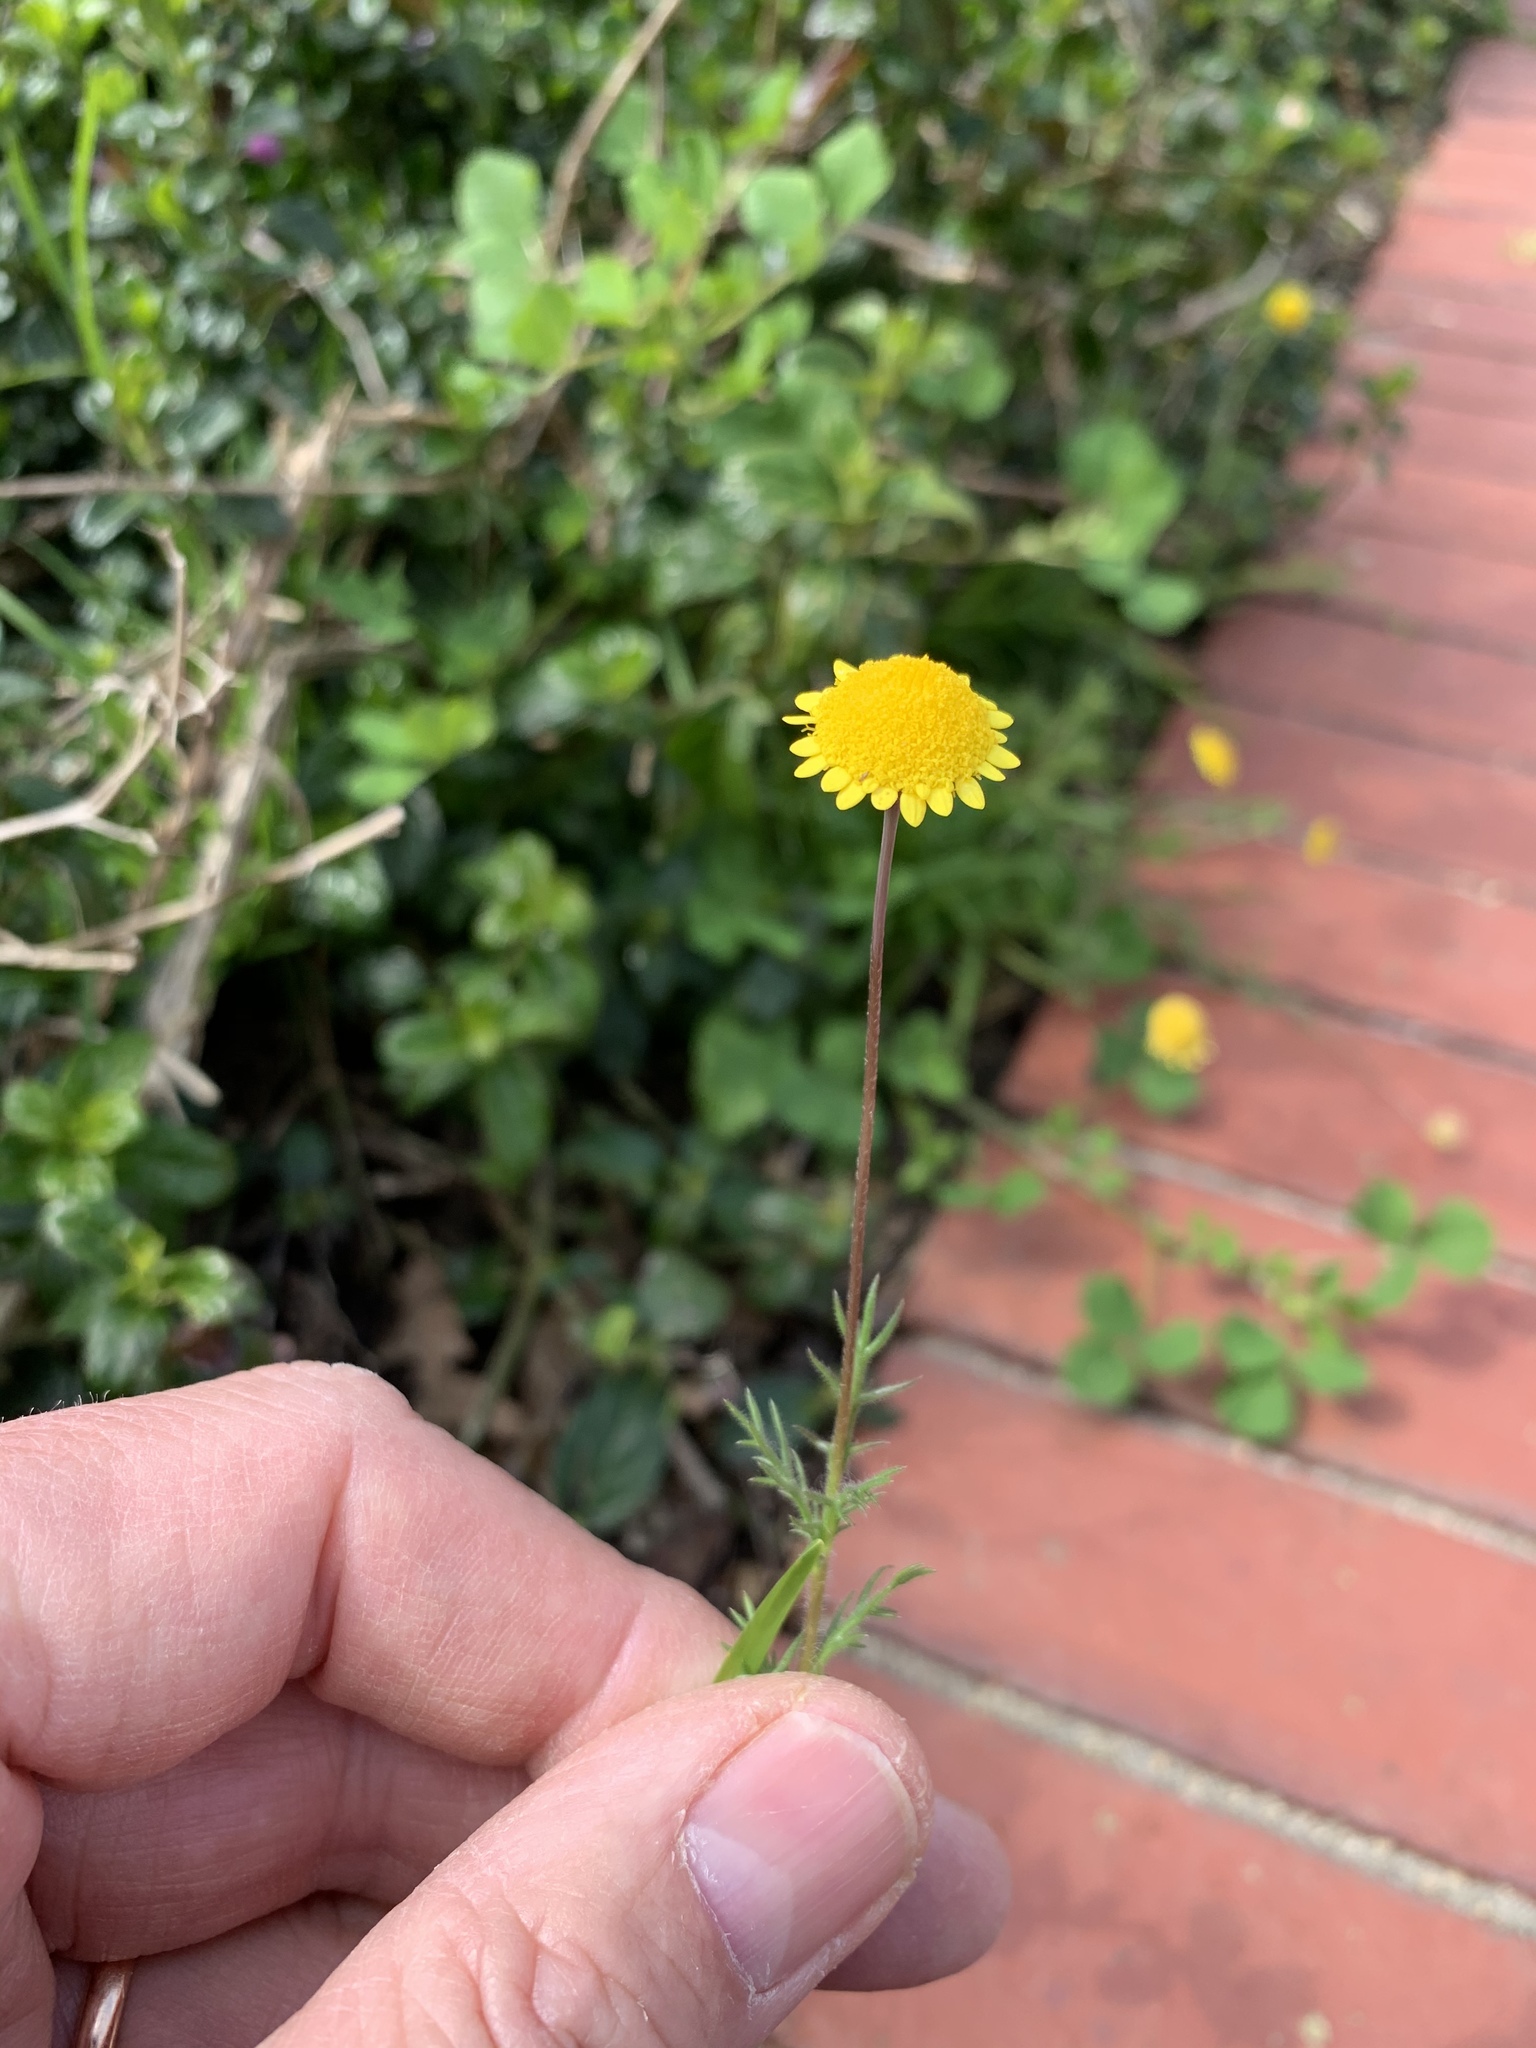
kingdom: Plantae
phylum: Tracheophyta
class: Magnoliopsida
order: Asterales
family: Asteraceae
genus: Cotula
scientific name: Cotula pruinosa
